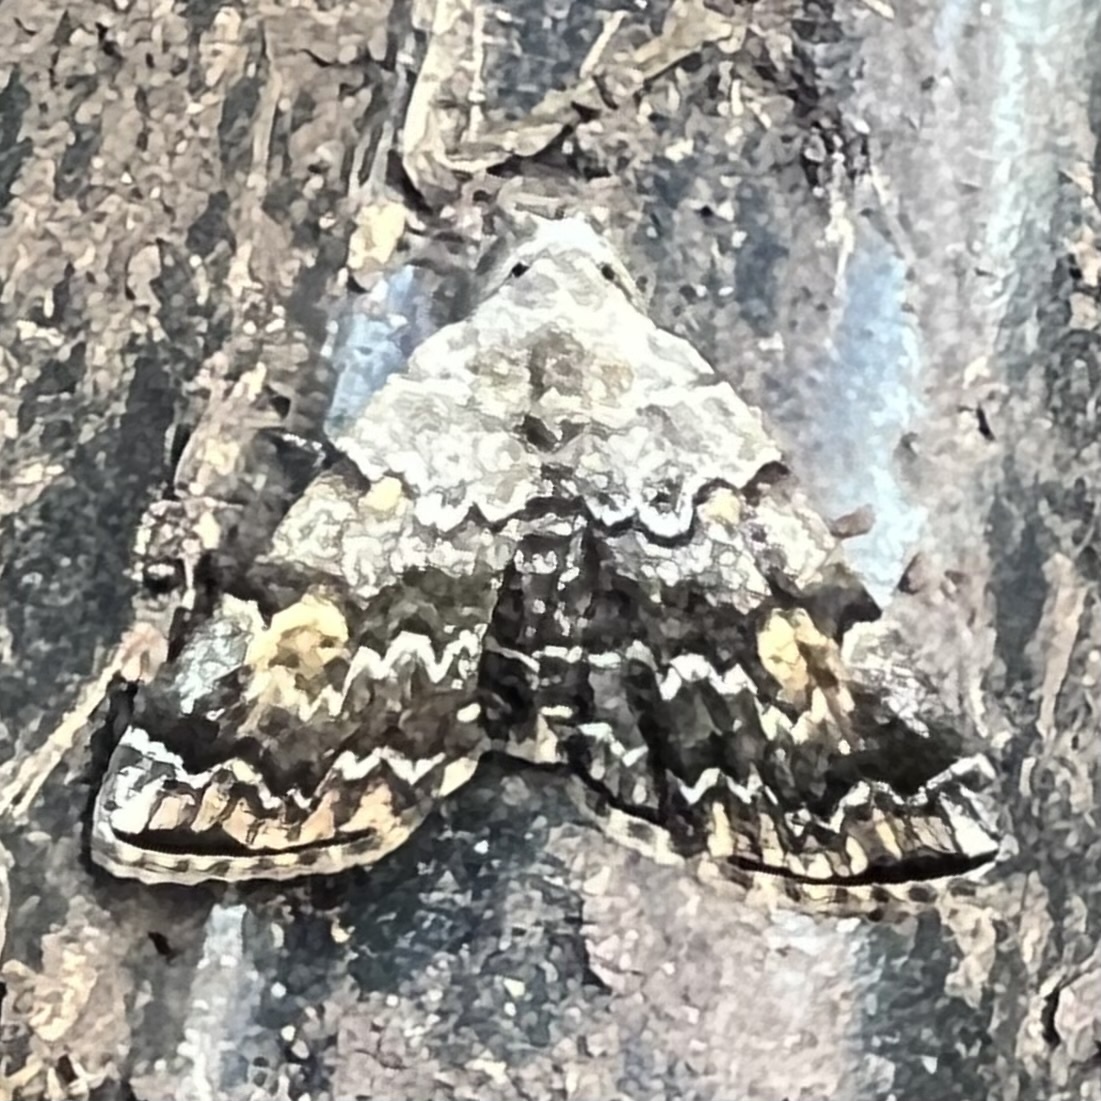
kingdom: Animalia
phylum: Arthropoda
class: Insecta
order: Lepidoptera
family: Erebidae
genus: Idia
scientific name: Idia americalis
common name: American idia moth
